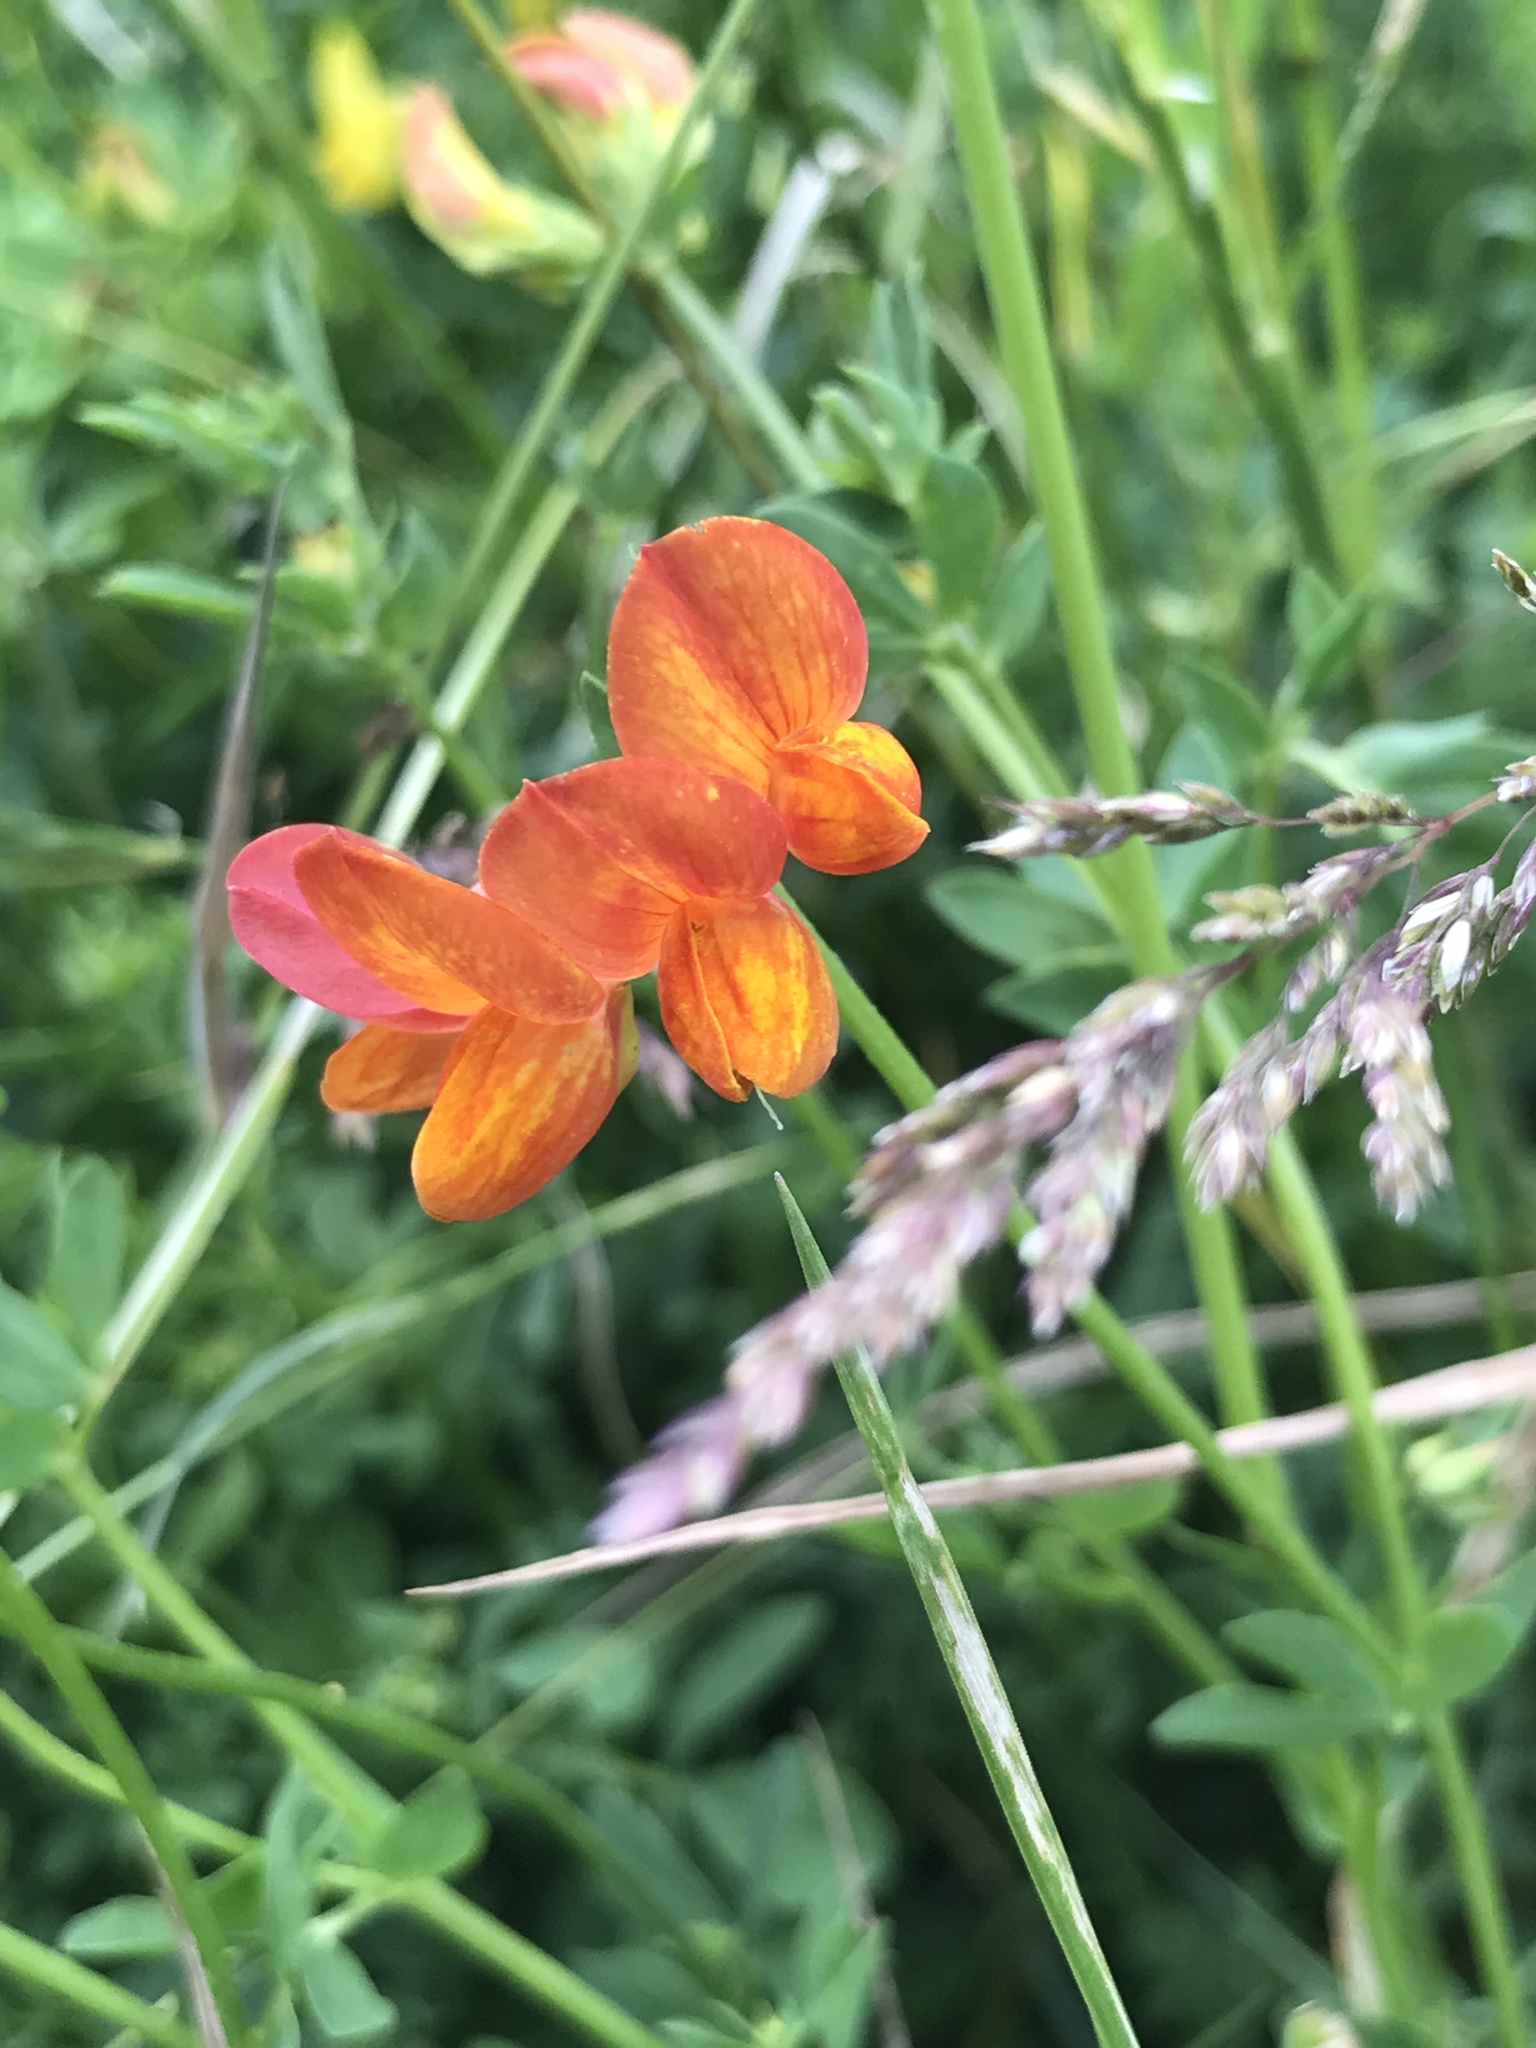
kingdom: Plantae
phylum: Tracheophyta
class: Magnoliopsida
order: Fabales
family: Fabaceae
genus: Lotus
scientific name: Lotus corniculatus
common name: Common bird's-foot-trefoil
